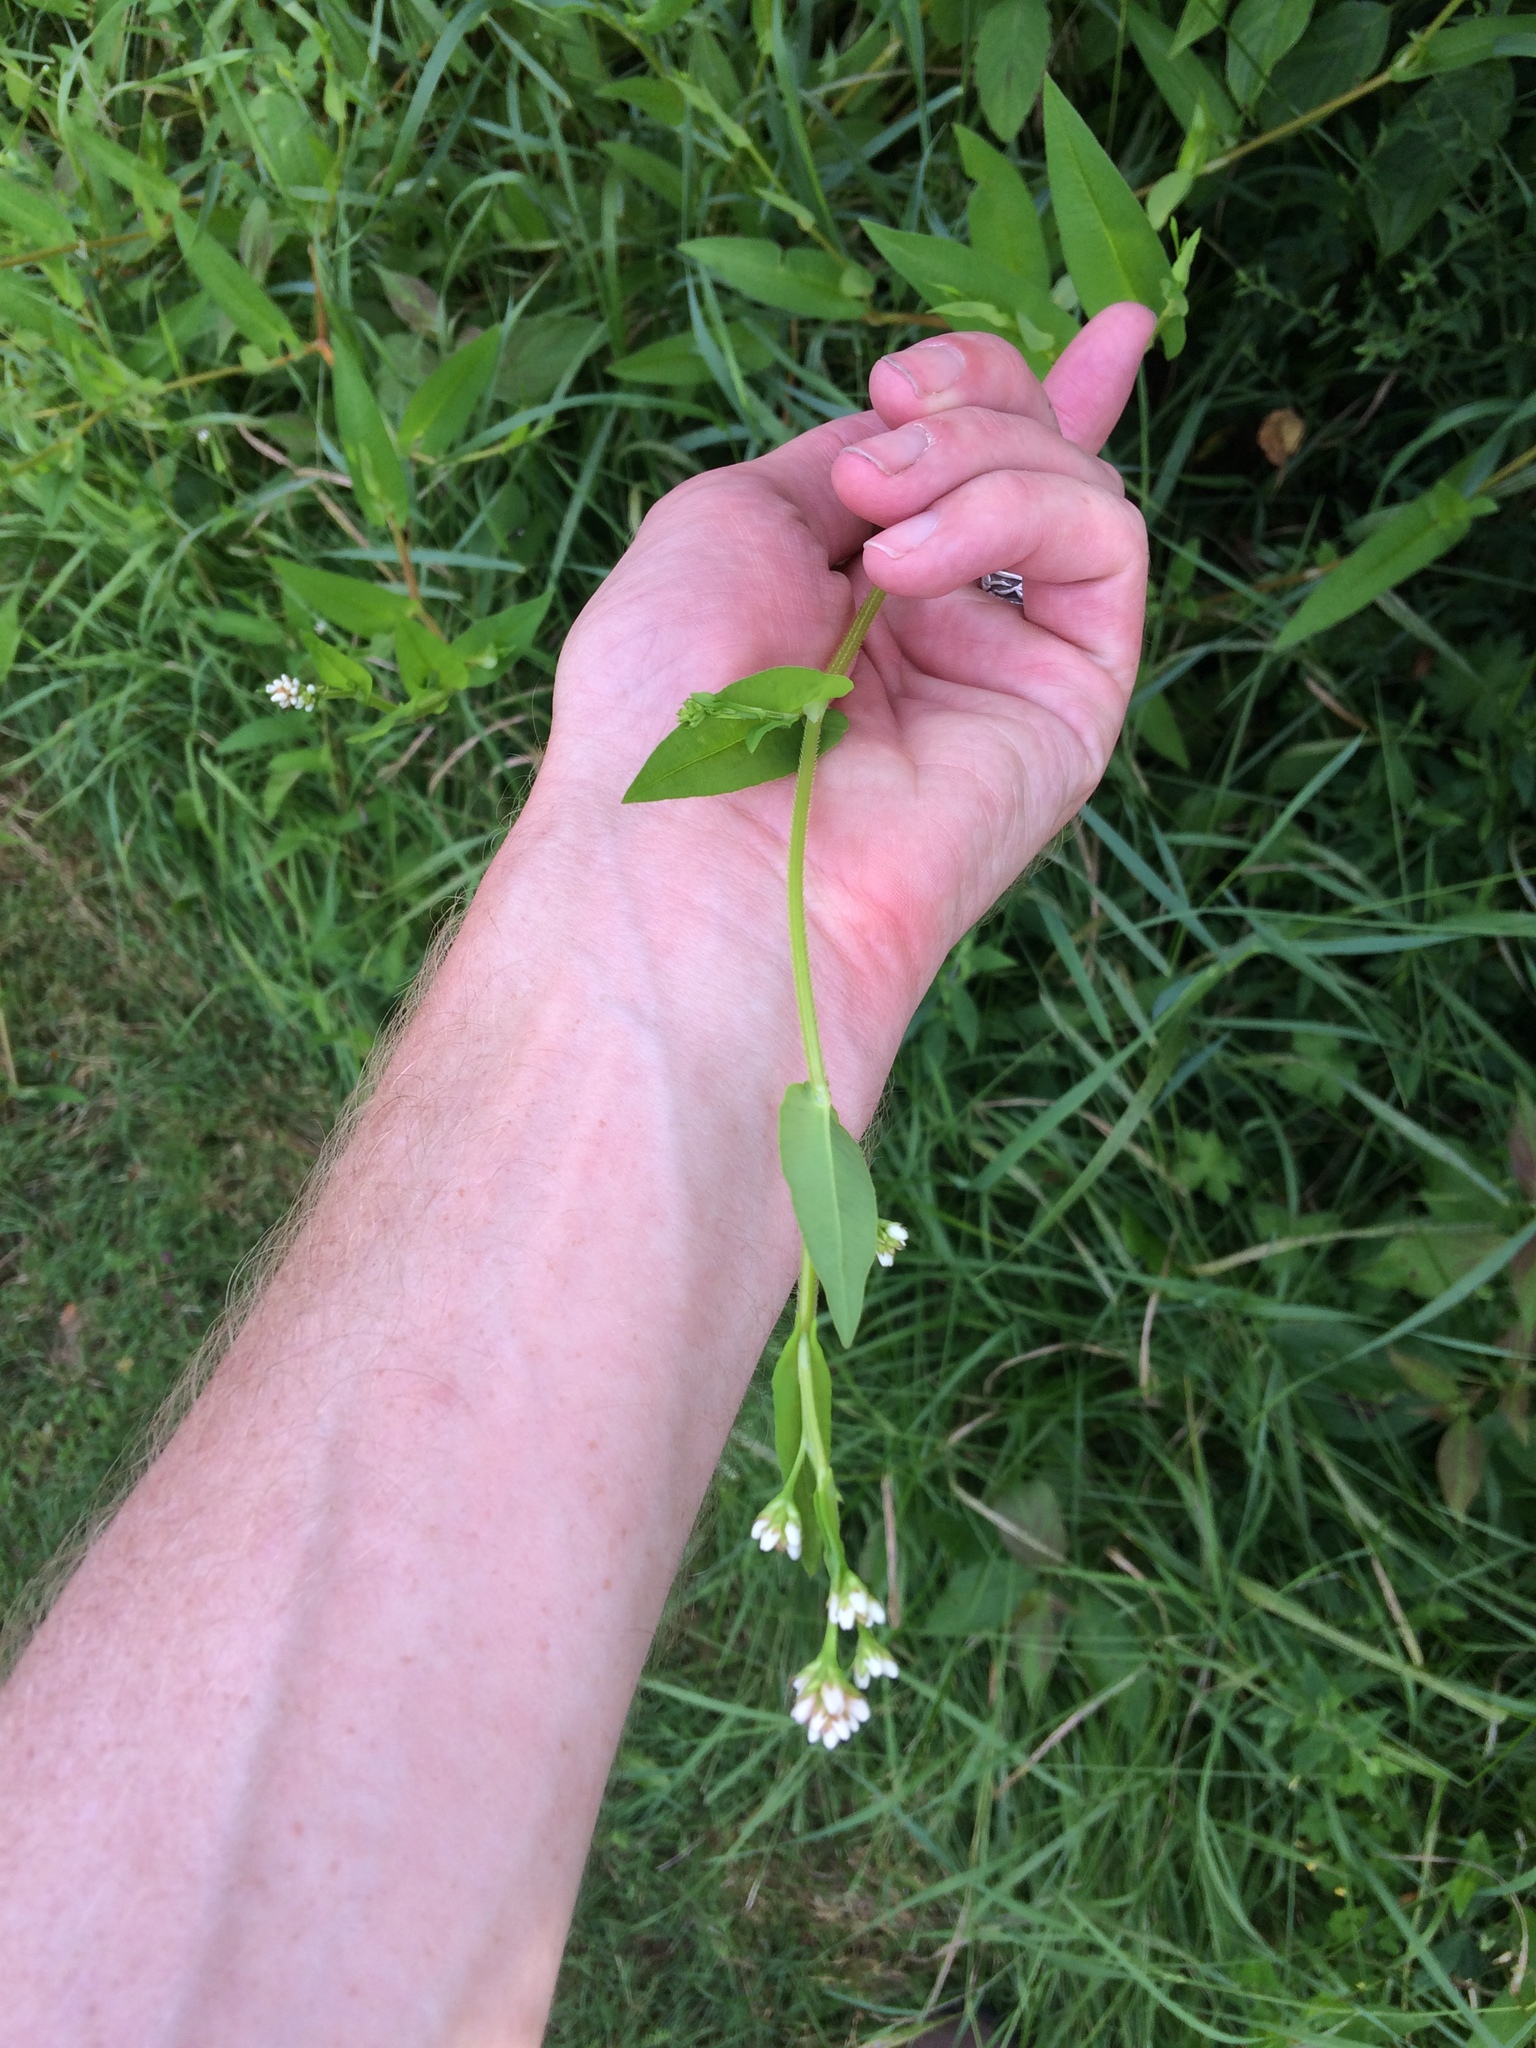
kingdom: Plantae
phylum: Tracheophyta
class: Magnoliopsida
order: Caryophyllales
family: Polygonaceae
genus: Persicaria
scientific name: Persicaria sagittata
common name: American tearthumb
